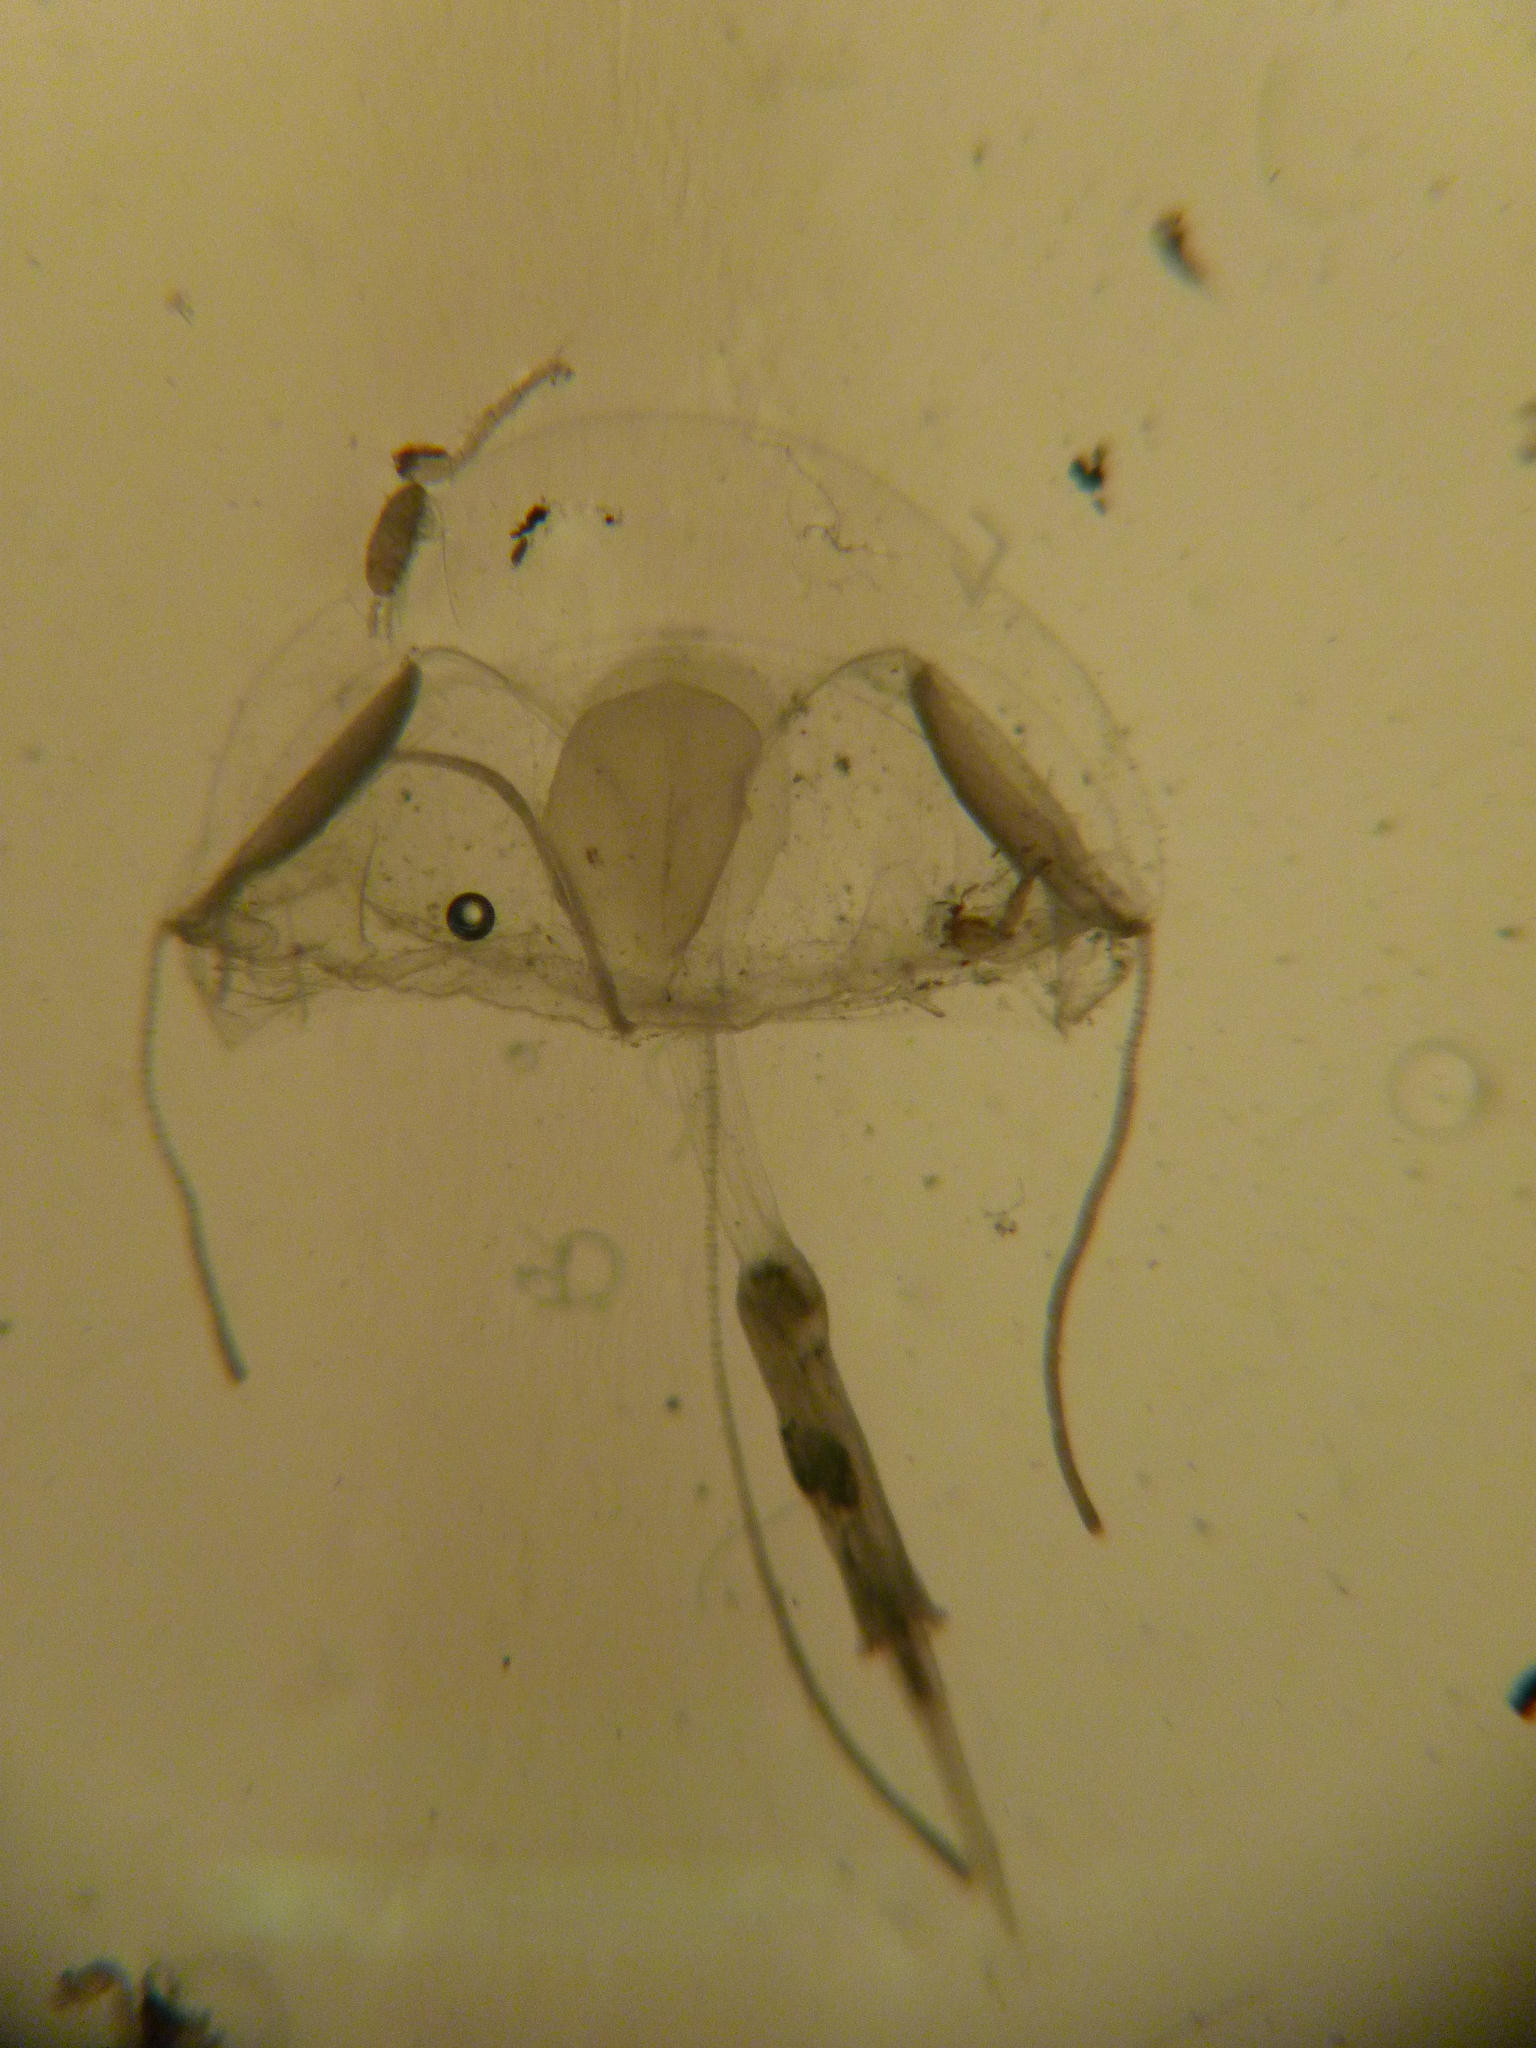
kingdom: Animalia
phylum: Cnidaria
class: Hydrozoa
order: Limnomedusae
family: Geryoniidae
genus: Liriope
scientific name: Liriope tetraphylla
